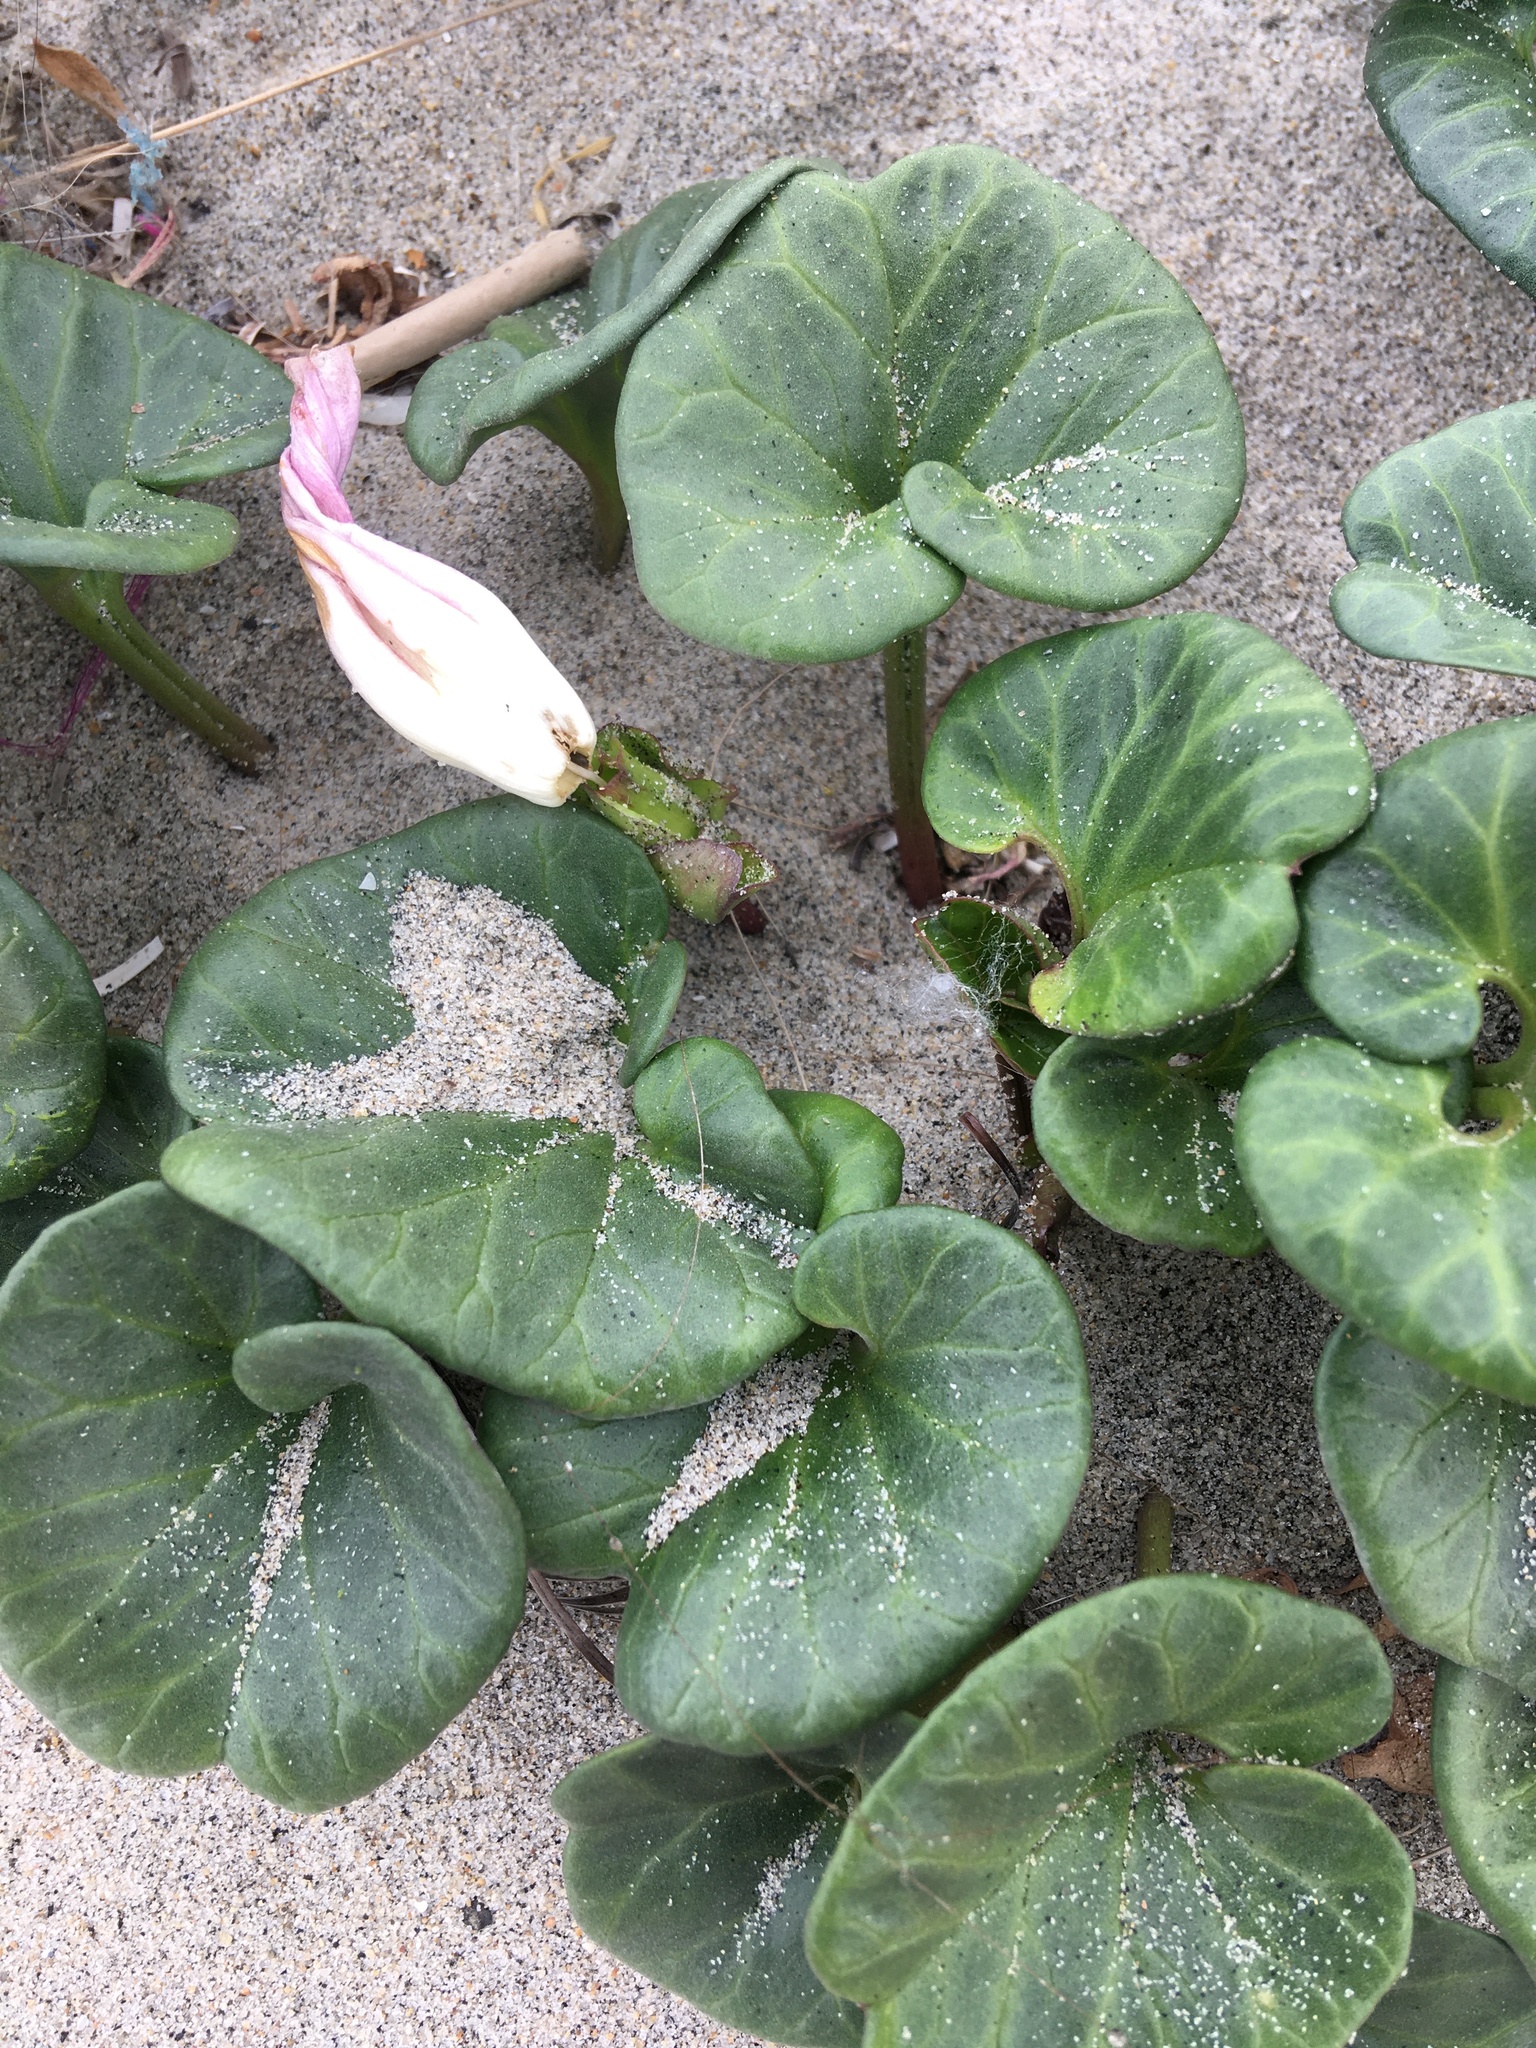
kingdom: Plantae
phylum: Tracheophyta
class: Magnoliopsida
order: Solanales
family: Convolvulaceae
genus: Calystegia
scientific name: Calystegia soldanella
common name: Sea bindweed
